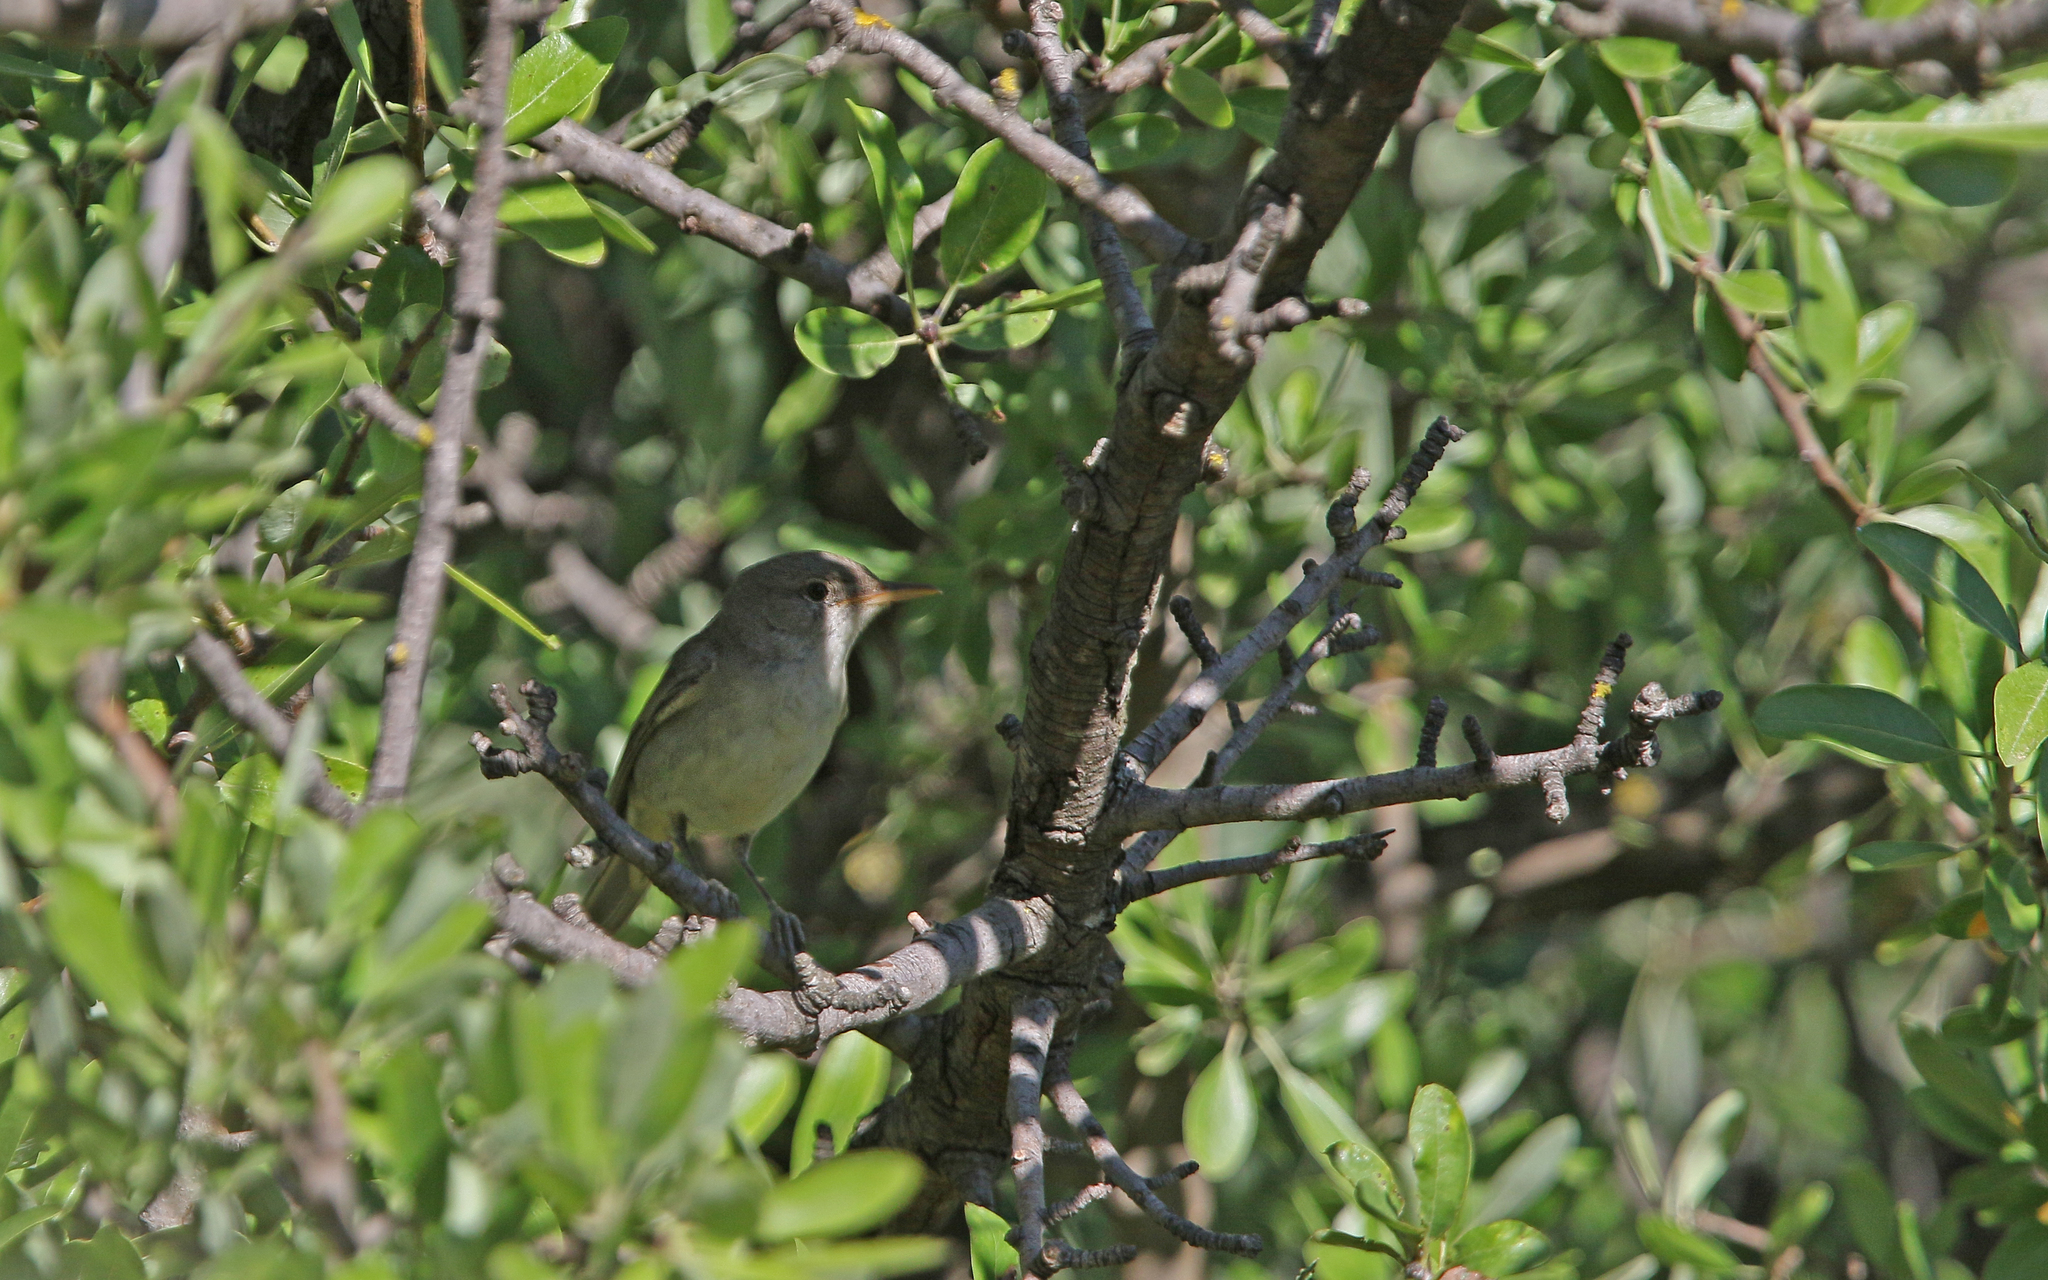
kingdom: Animalia
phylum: Chordata
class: Aves
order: Passeriformes
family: Acrocephalidae
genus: Hippolais
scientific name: Hippolais olivetorum
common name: Olive-tree warbler
